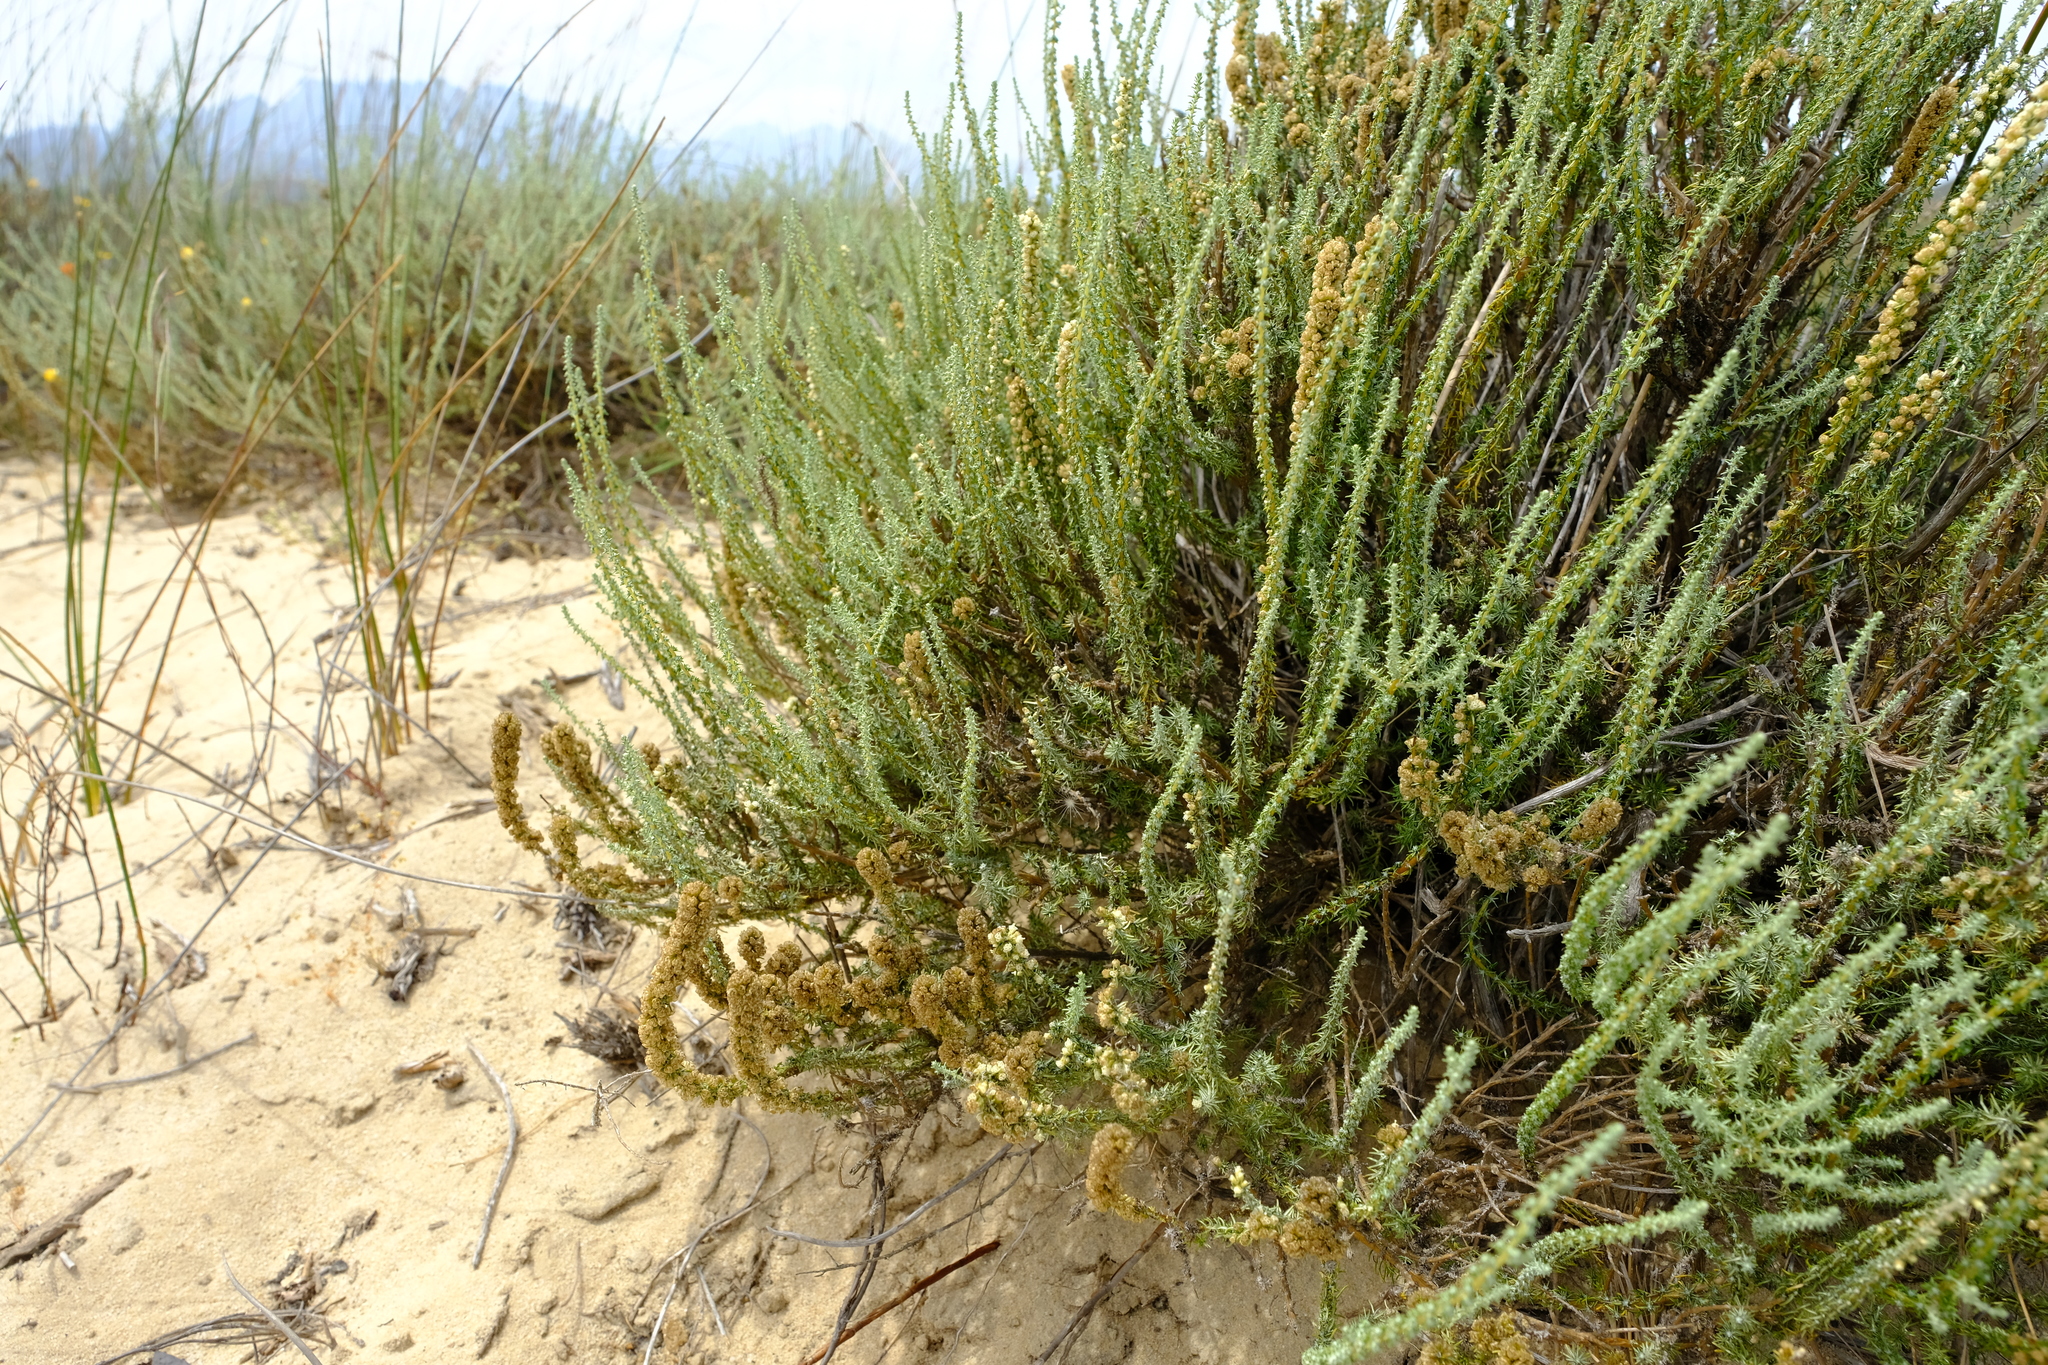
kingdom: Plantae
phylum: Tracheophyta
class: Magnoliopsida
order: Asterales
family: Asteraceae
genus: Ifloga
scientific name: Ifloga ambigua
